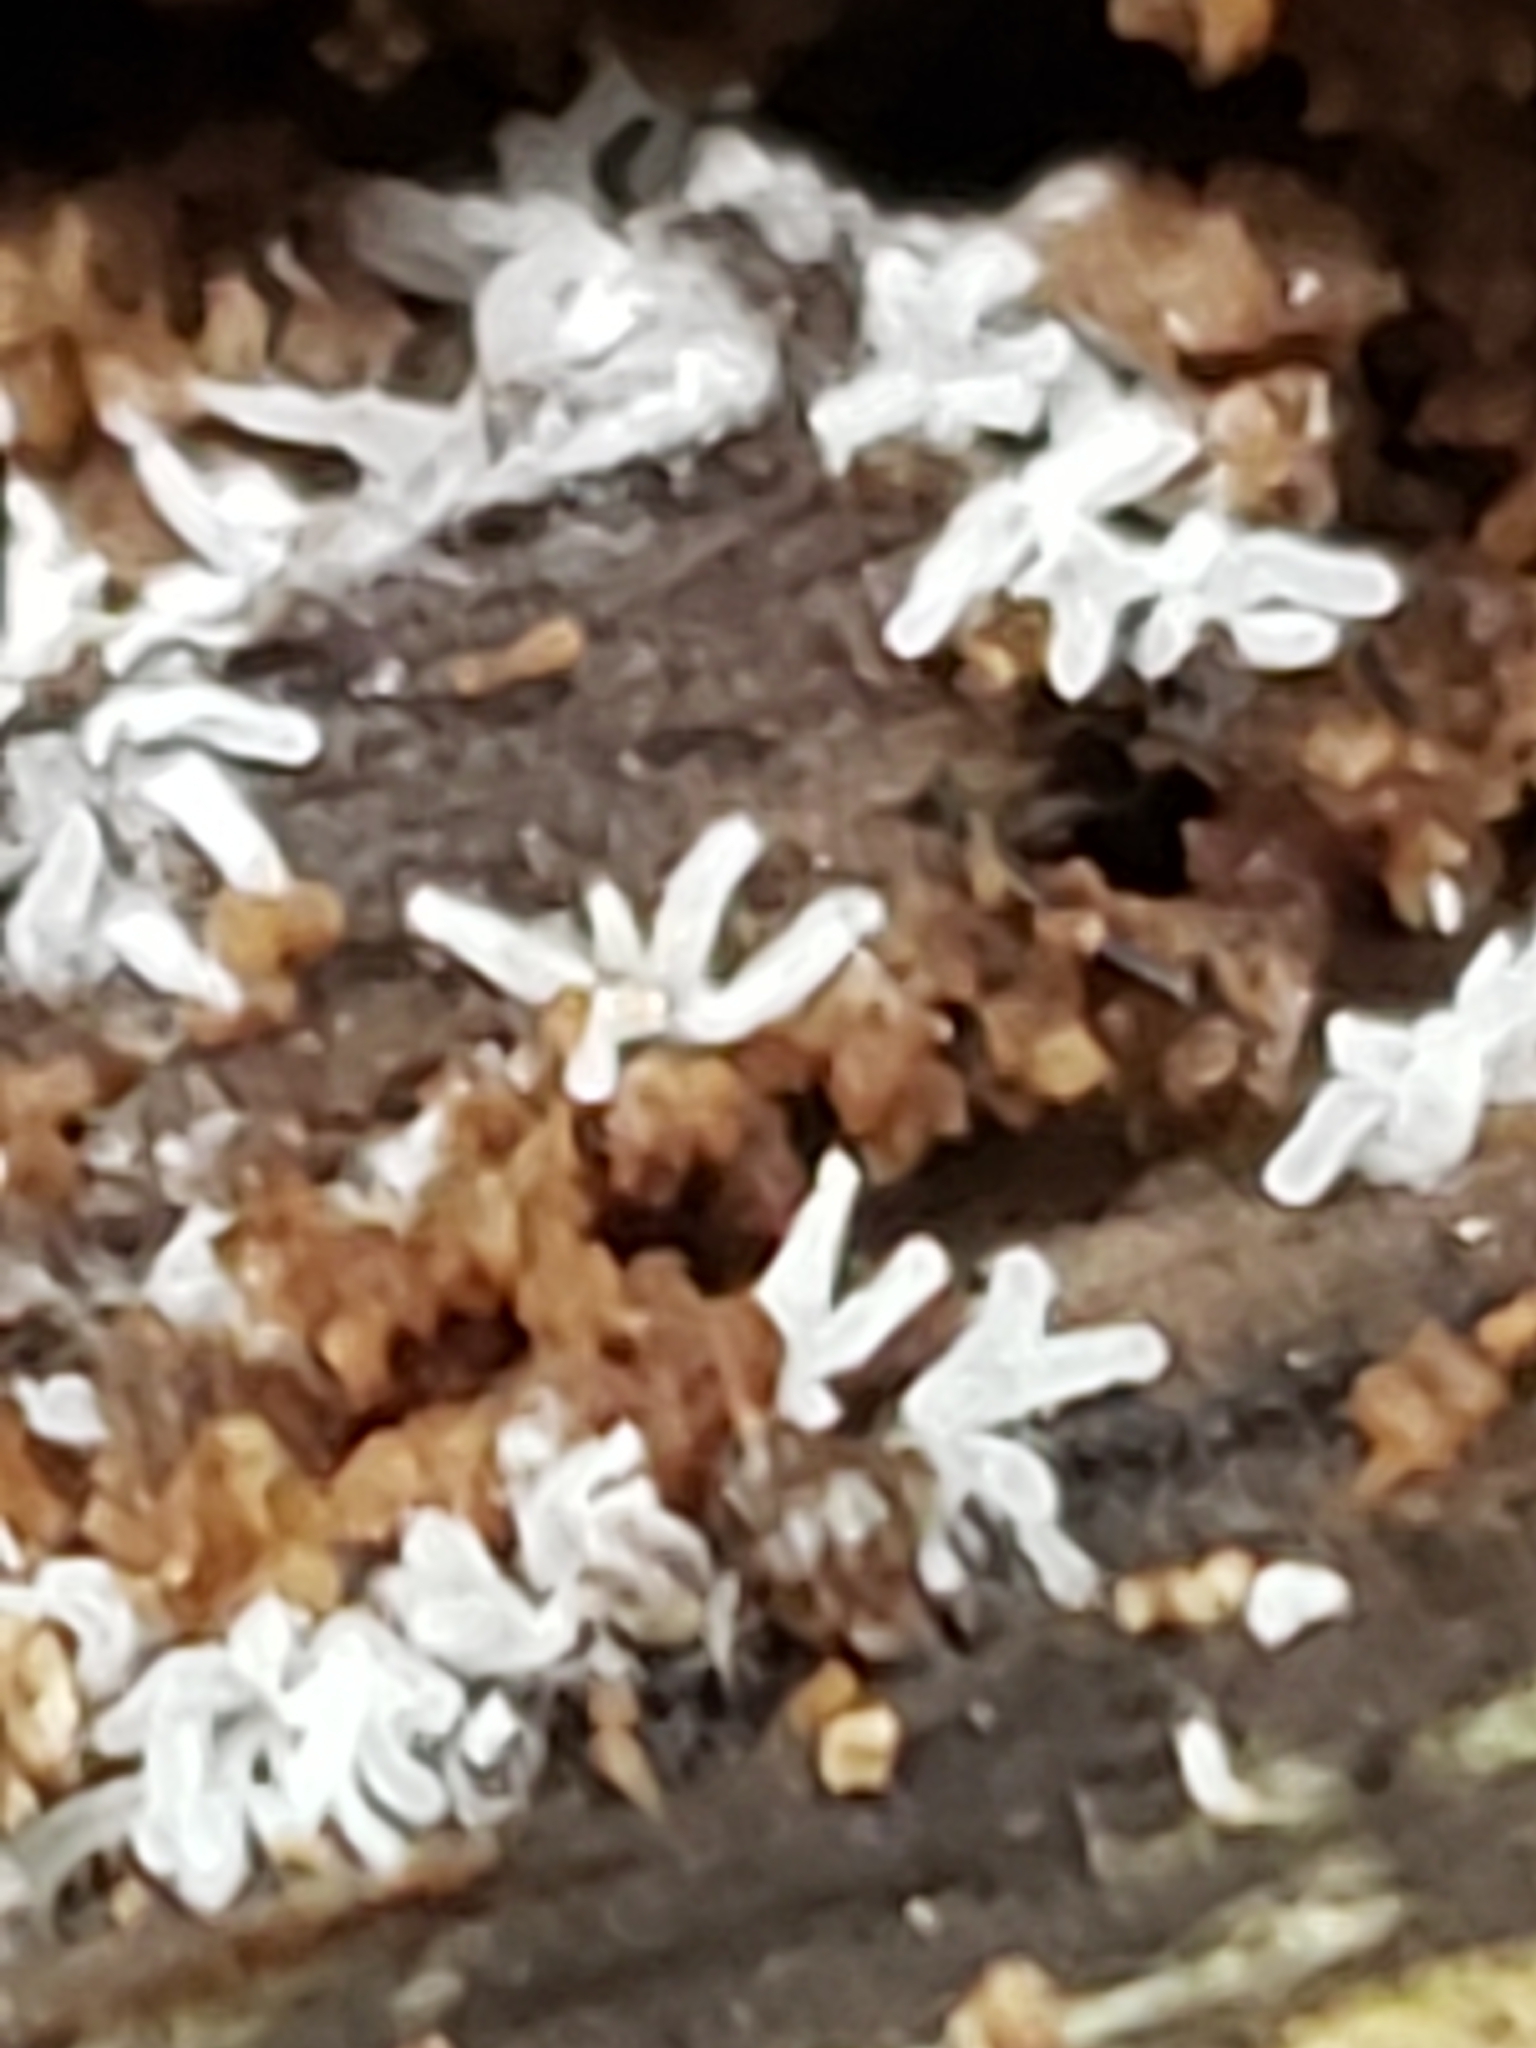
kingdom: Protozoa
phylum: Mycetozoa
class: Protosteliomycetes
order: Ceratiomyxales
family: Ceratiomyxaceae
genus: Ceratiomyxa
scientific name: Ceratiomyxa fruticulosa
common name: Honeycomb coral slime mold
